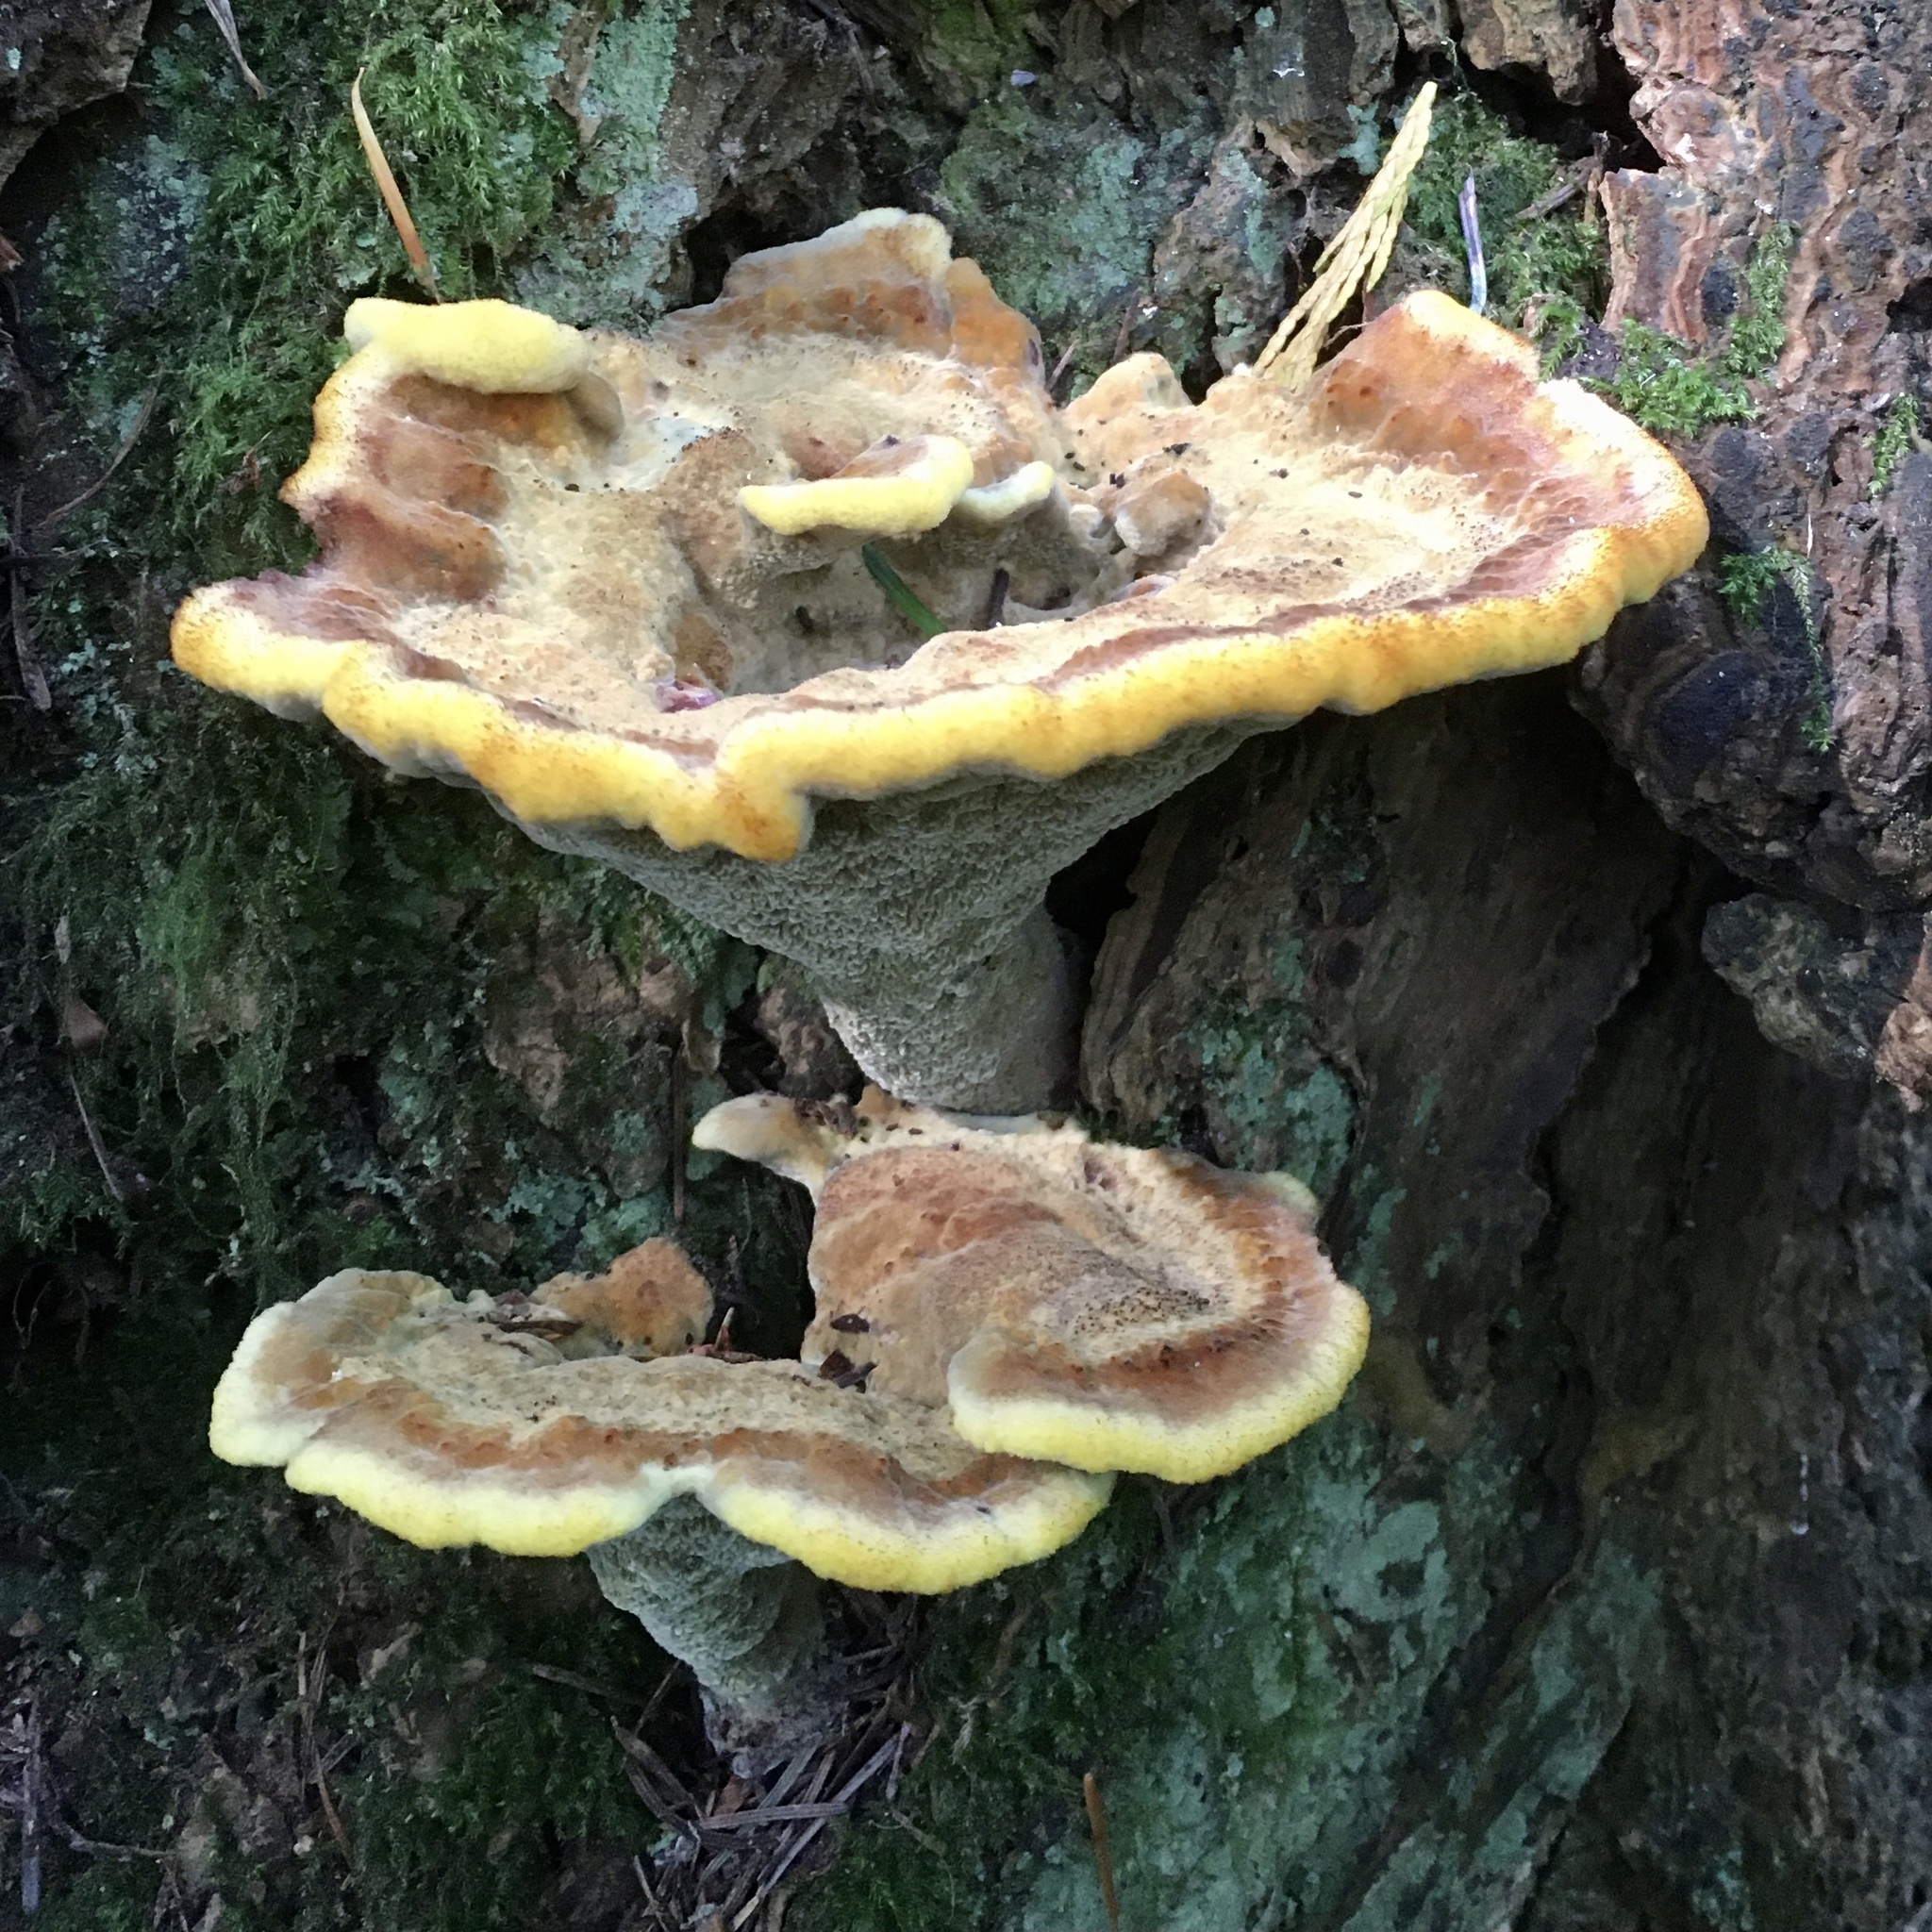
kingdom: Fungi
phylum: Basidiomycota
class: Agaricomycetes
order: Polyporales
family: Laetiporaceae
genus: Phaeolus
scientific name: Phaeolus schweinitzii
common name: Dyer's mazegill
